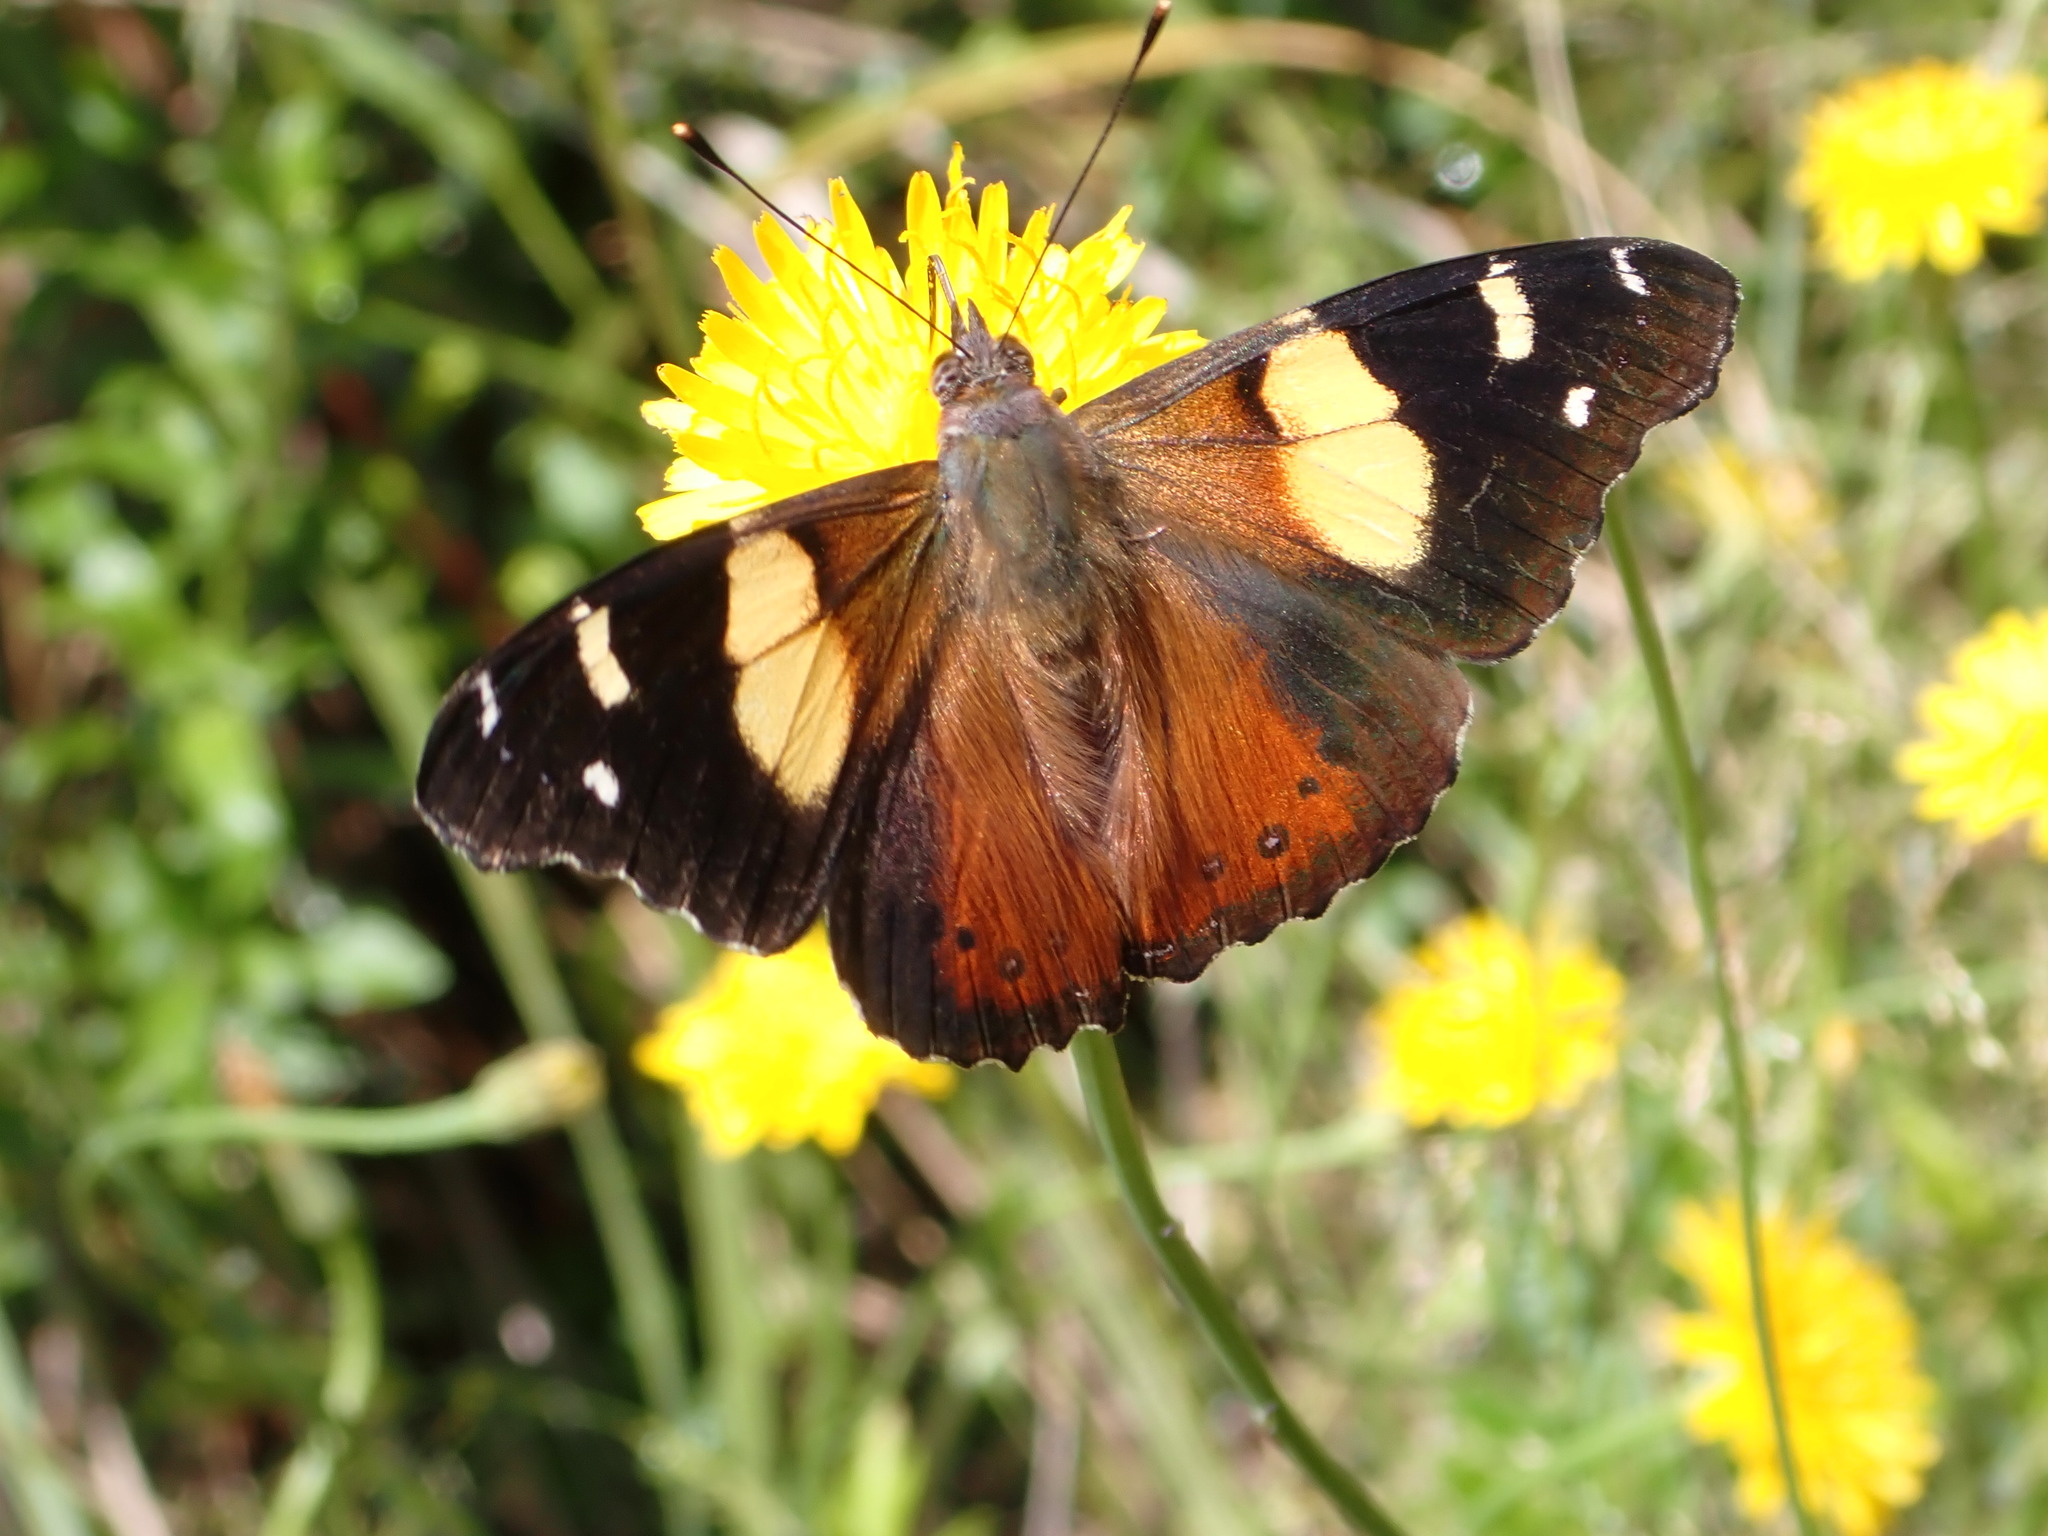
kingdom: Animalia
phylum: Arthropoda
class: Insecta
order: Lepidoptera
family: Nymphalidae
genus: Vanessa
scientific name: Vanessa itea
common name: Yellow admiral
